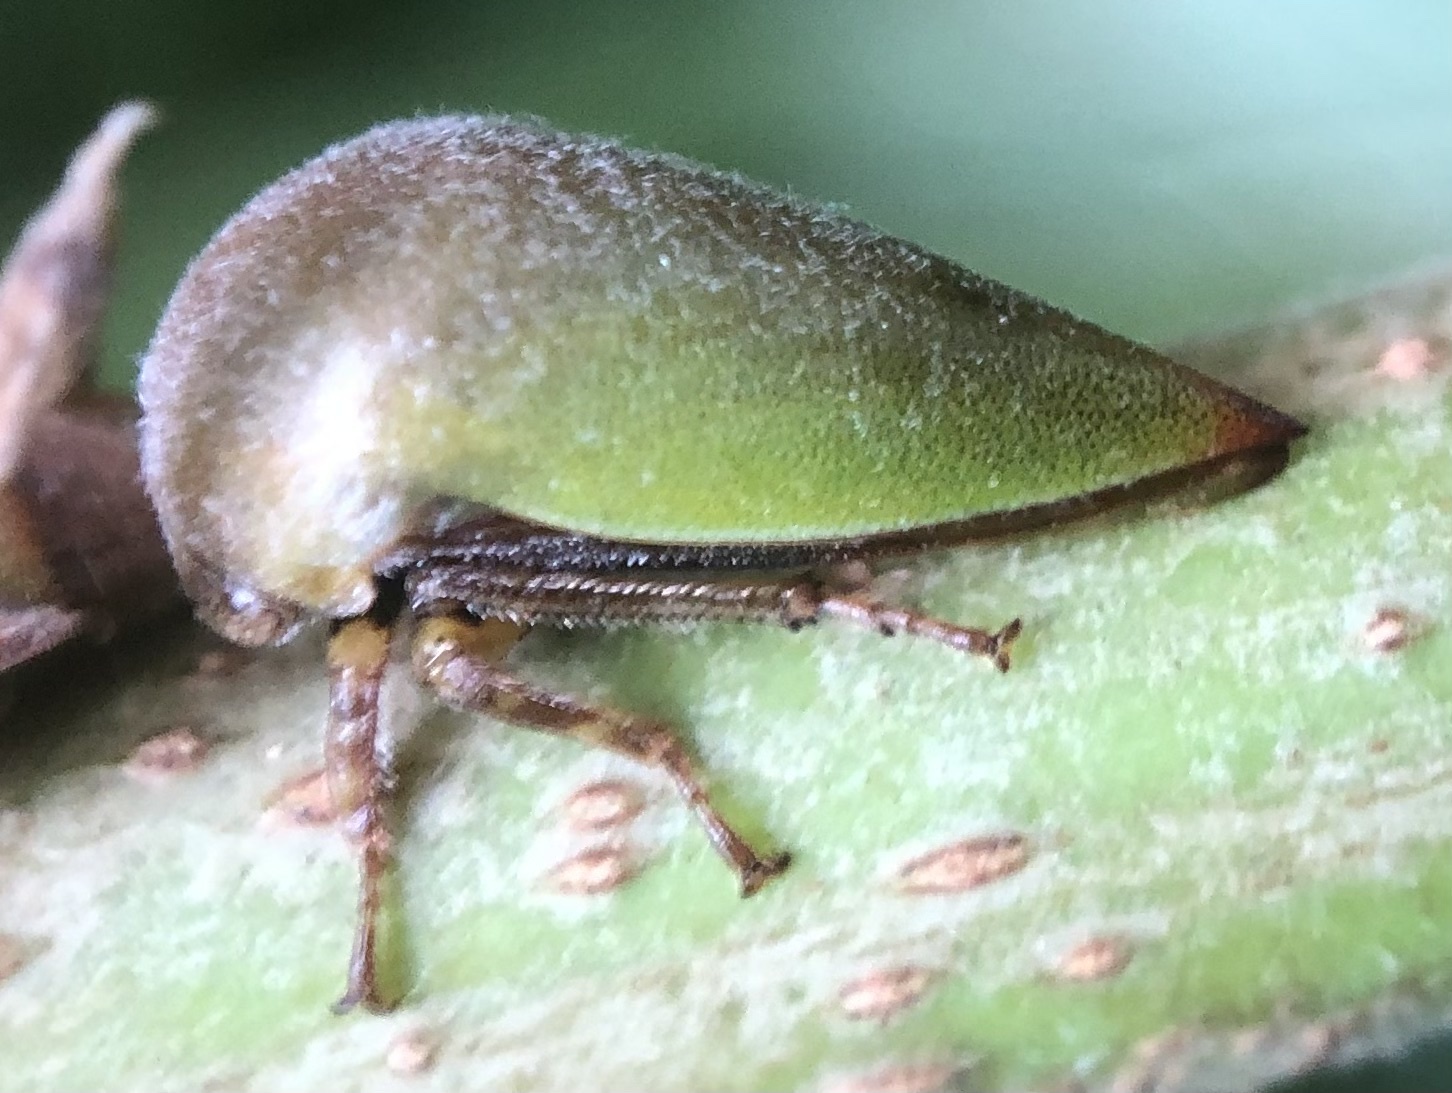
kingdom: Animalia
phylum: Arthropoda
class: Insecta
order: Hemiptera
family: Membracidae
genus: Hebetica
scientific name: Hebetica
